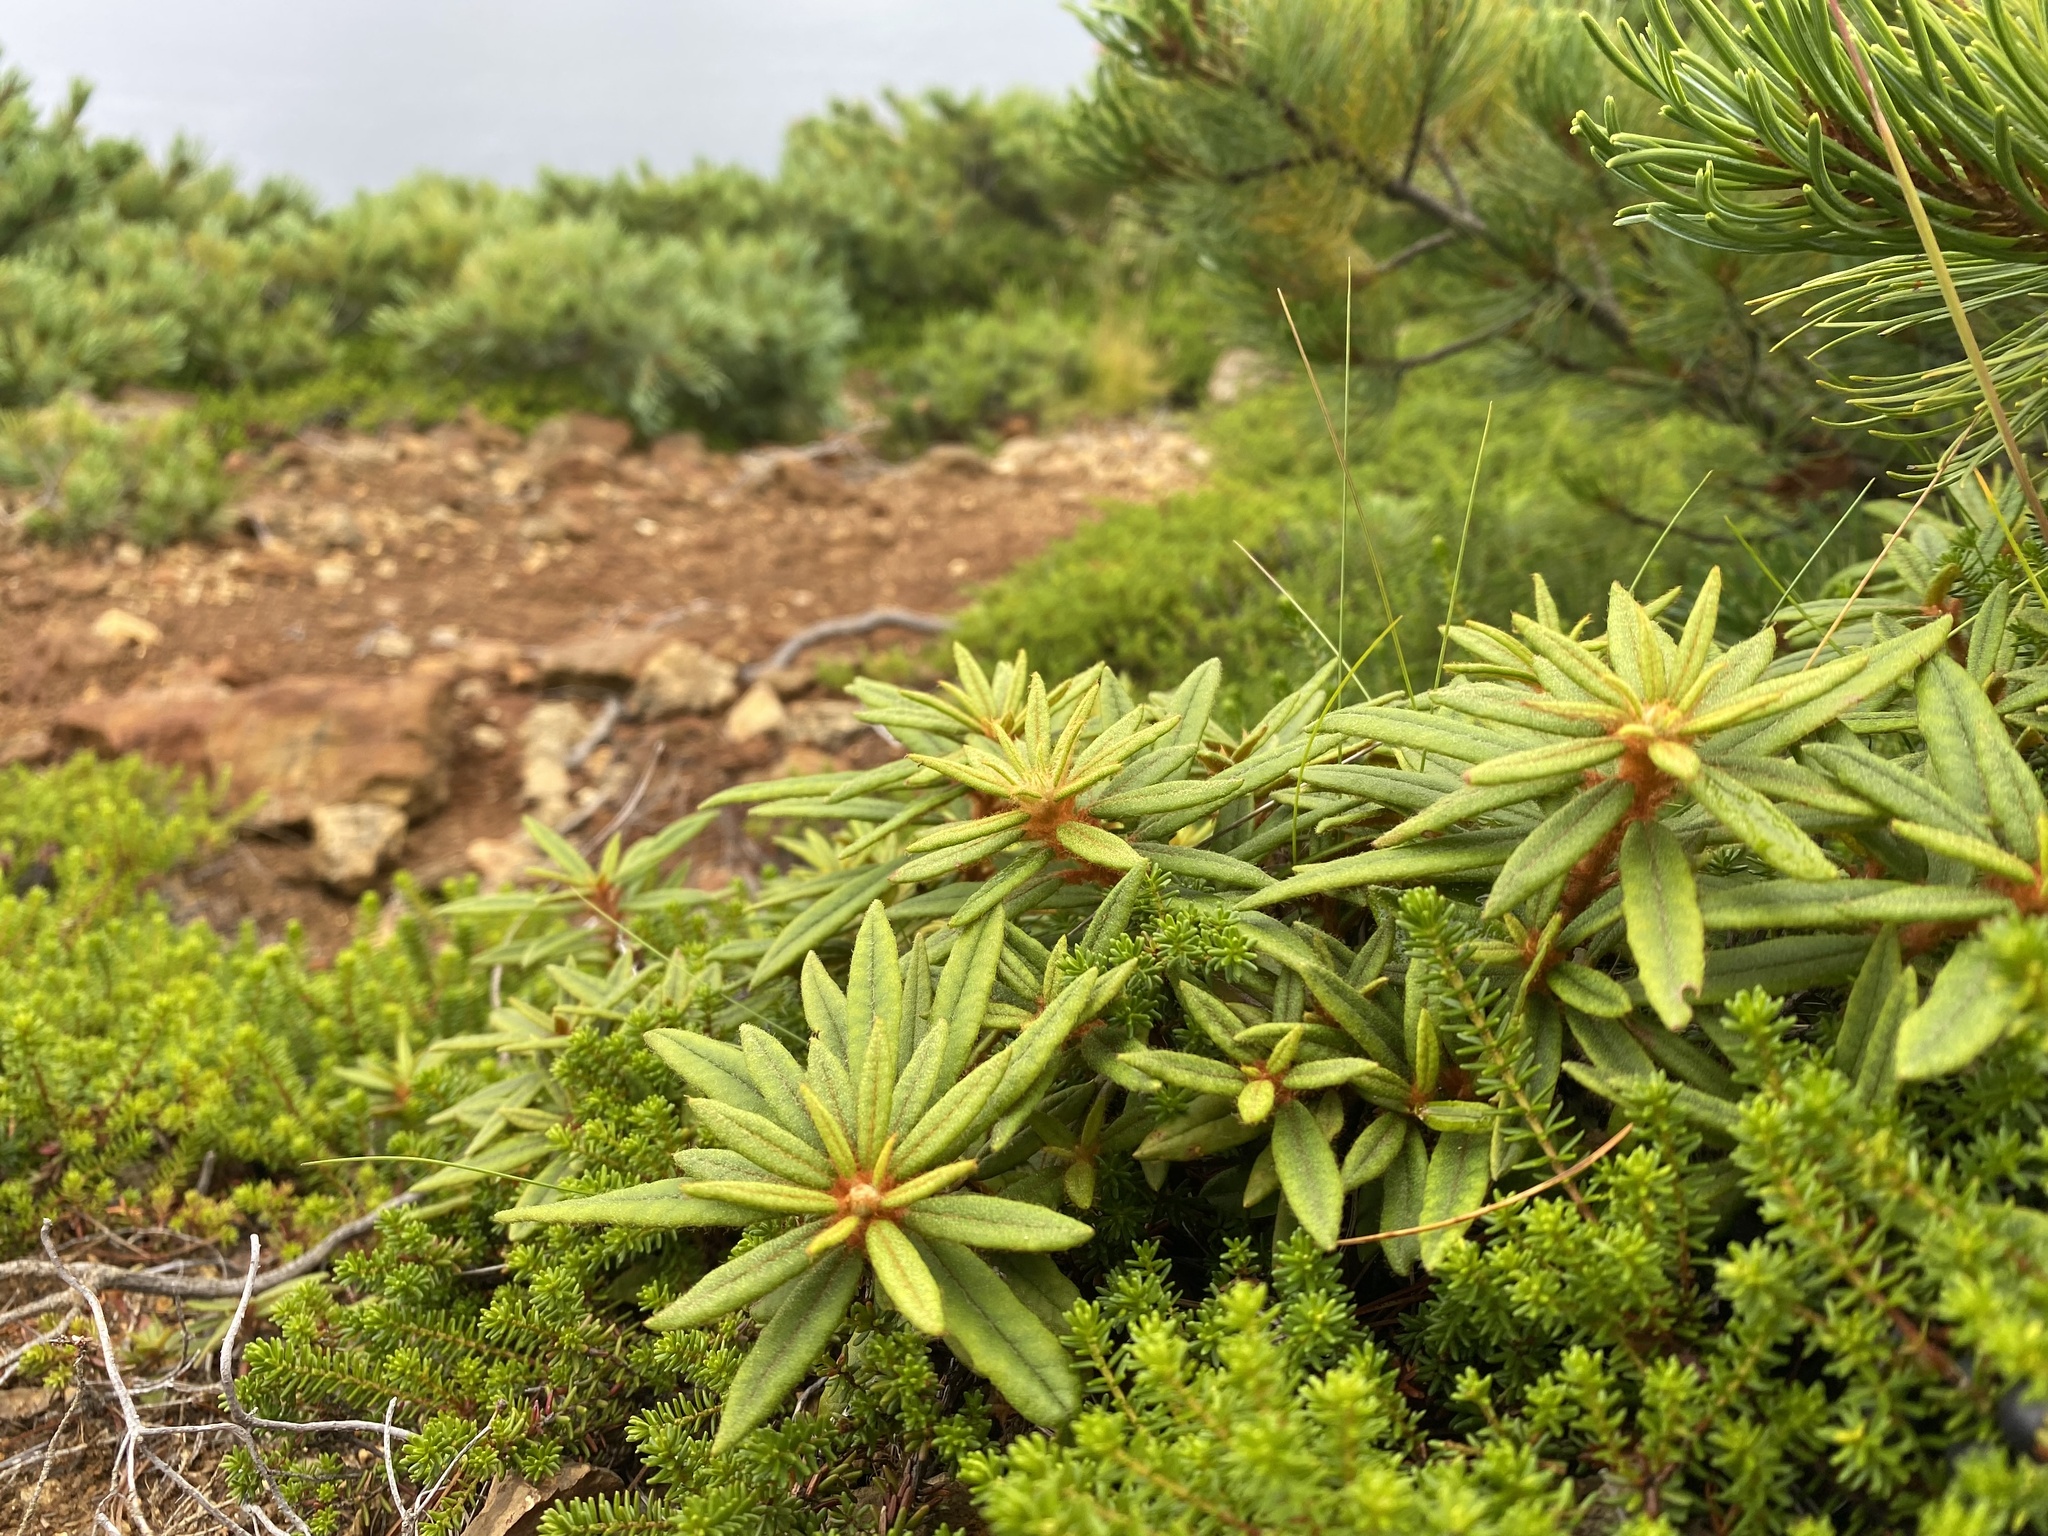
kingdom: Plantae
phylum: Tracheophyta
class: Magnoliopsida
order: Ericales
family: Ericaceae
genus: Rhododendron
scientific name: Rhododendron tomentosum
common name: Marsh labrador tea
